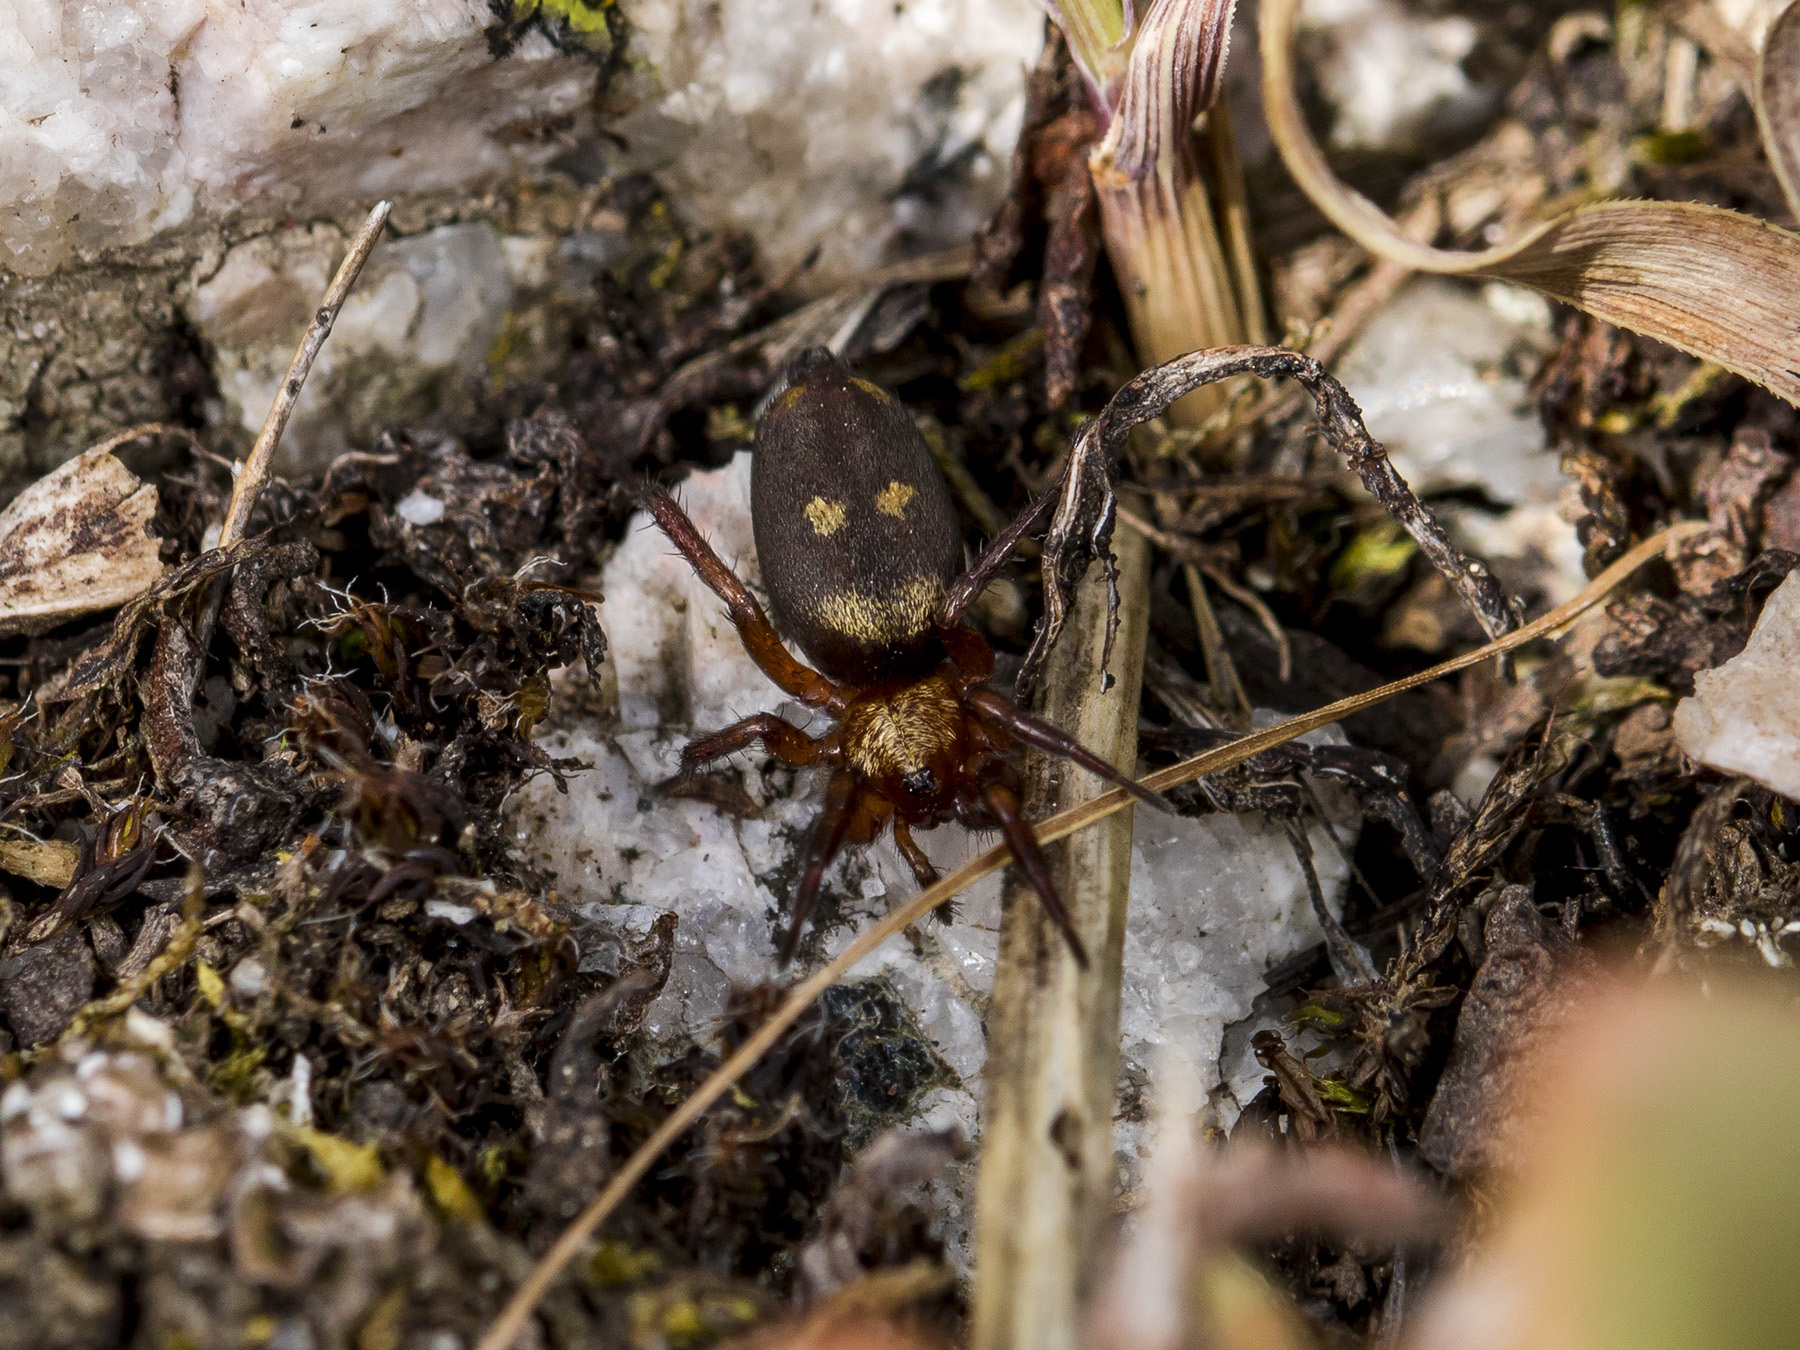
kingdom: Animalia
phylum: Arthropoda
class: Arachnida
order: Araneae
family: Gnaphosidae
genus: Callilepis
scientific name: Callilepis nocturna
